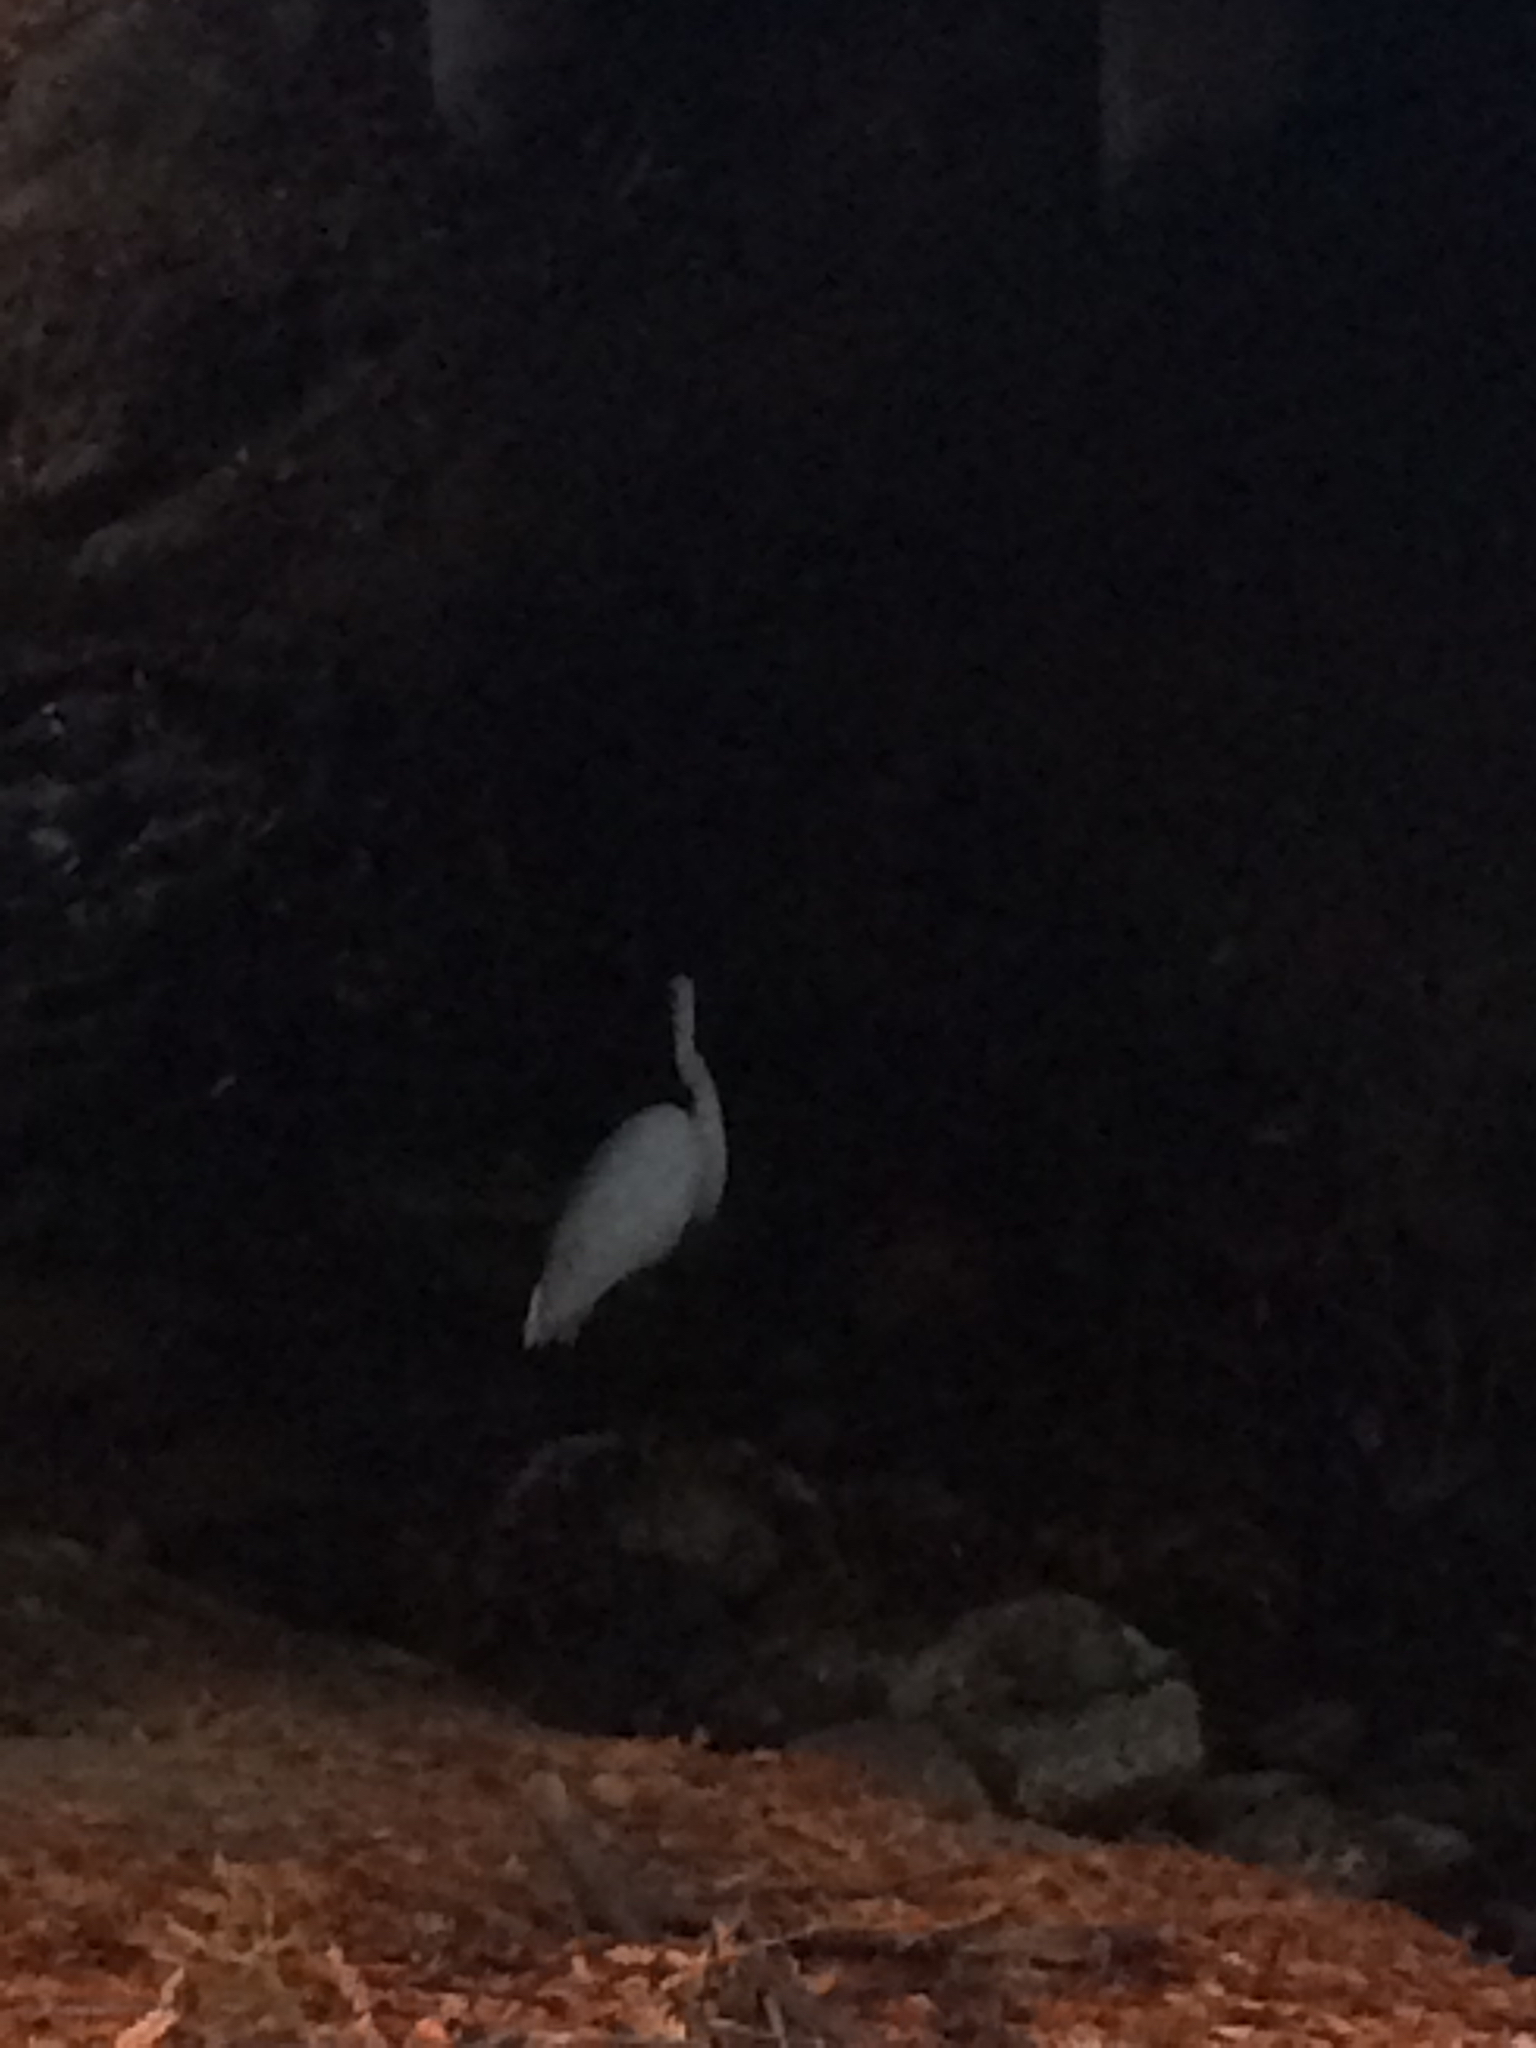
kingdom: Animalia
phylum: Chordata
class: Aves
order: Pelecaniformes
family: Ardeidae
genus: Ardea
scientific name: Ardea alba
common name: Great egret
